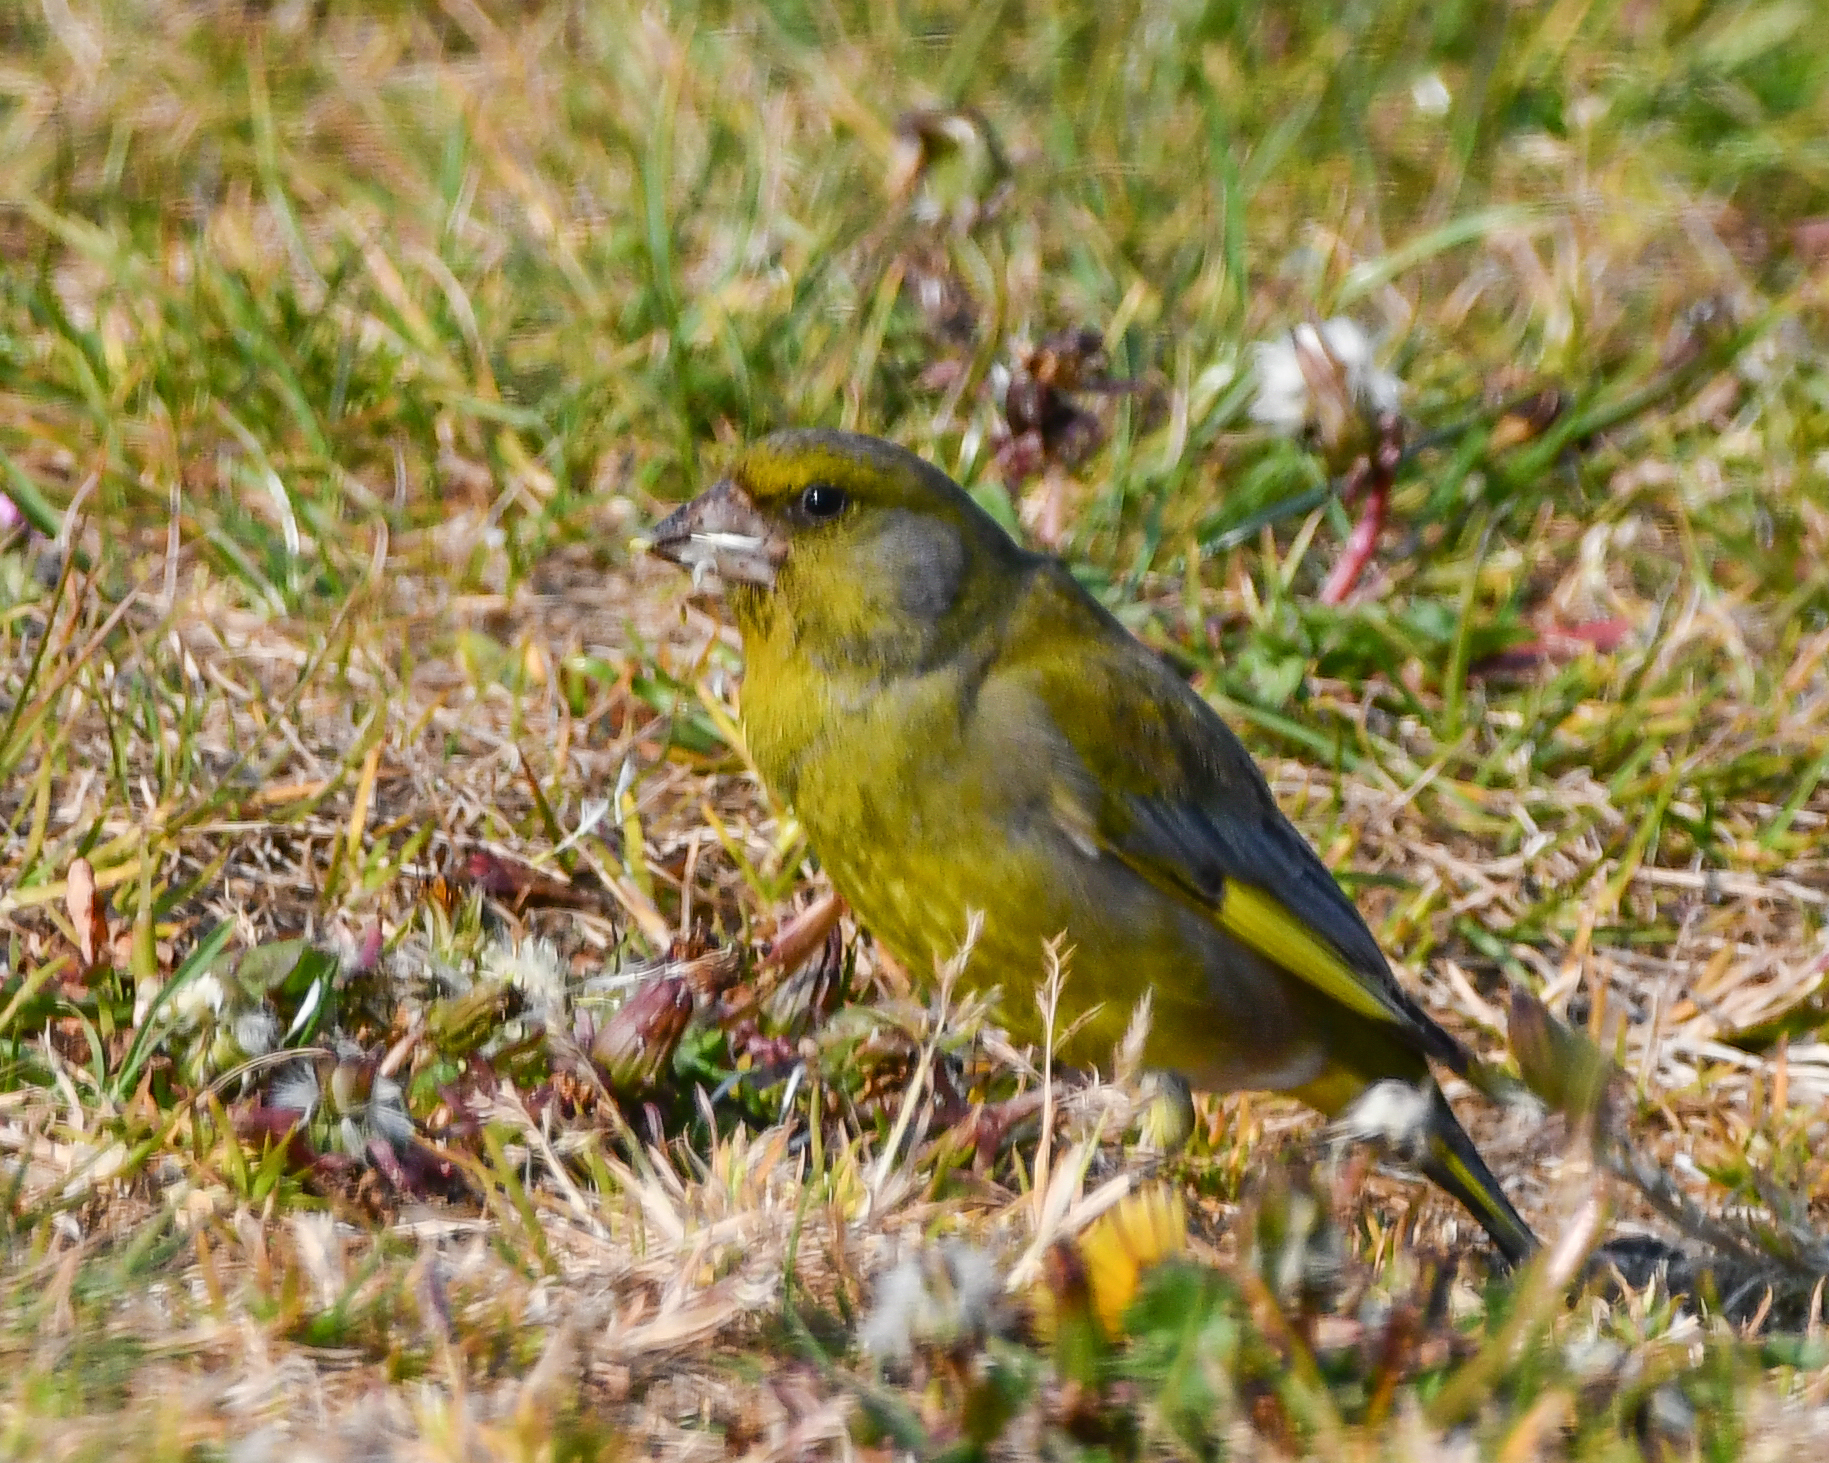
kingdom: Plantae
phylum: Tracheophyta
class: Liliopsida
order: Poales
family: Poaceae
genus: Chloris
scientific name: Chloris chloris
